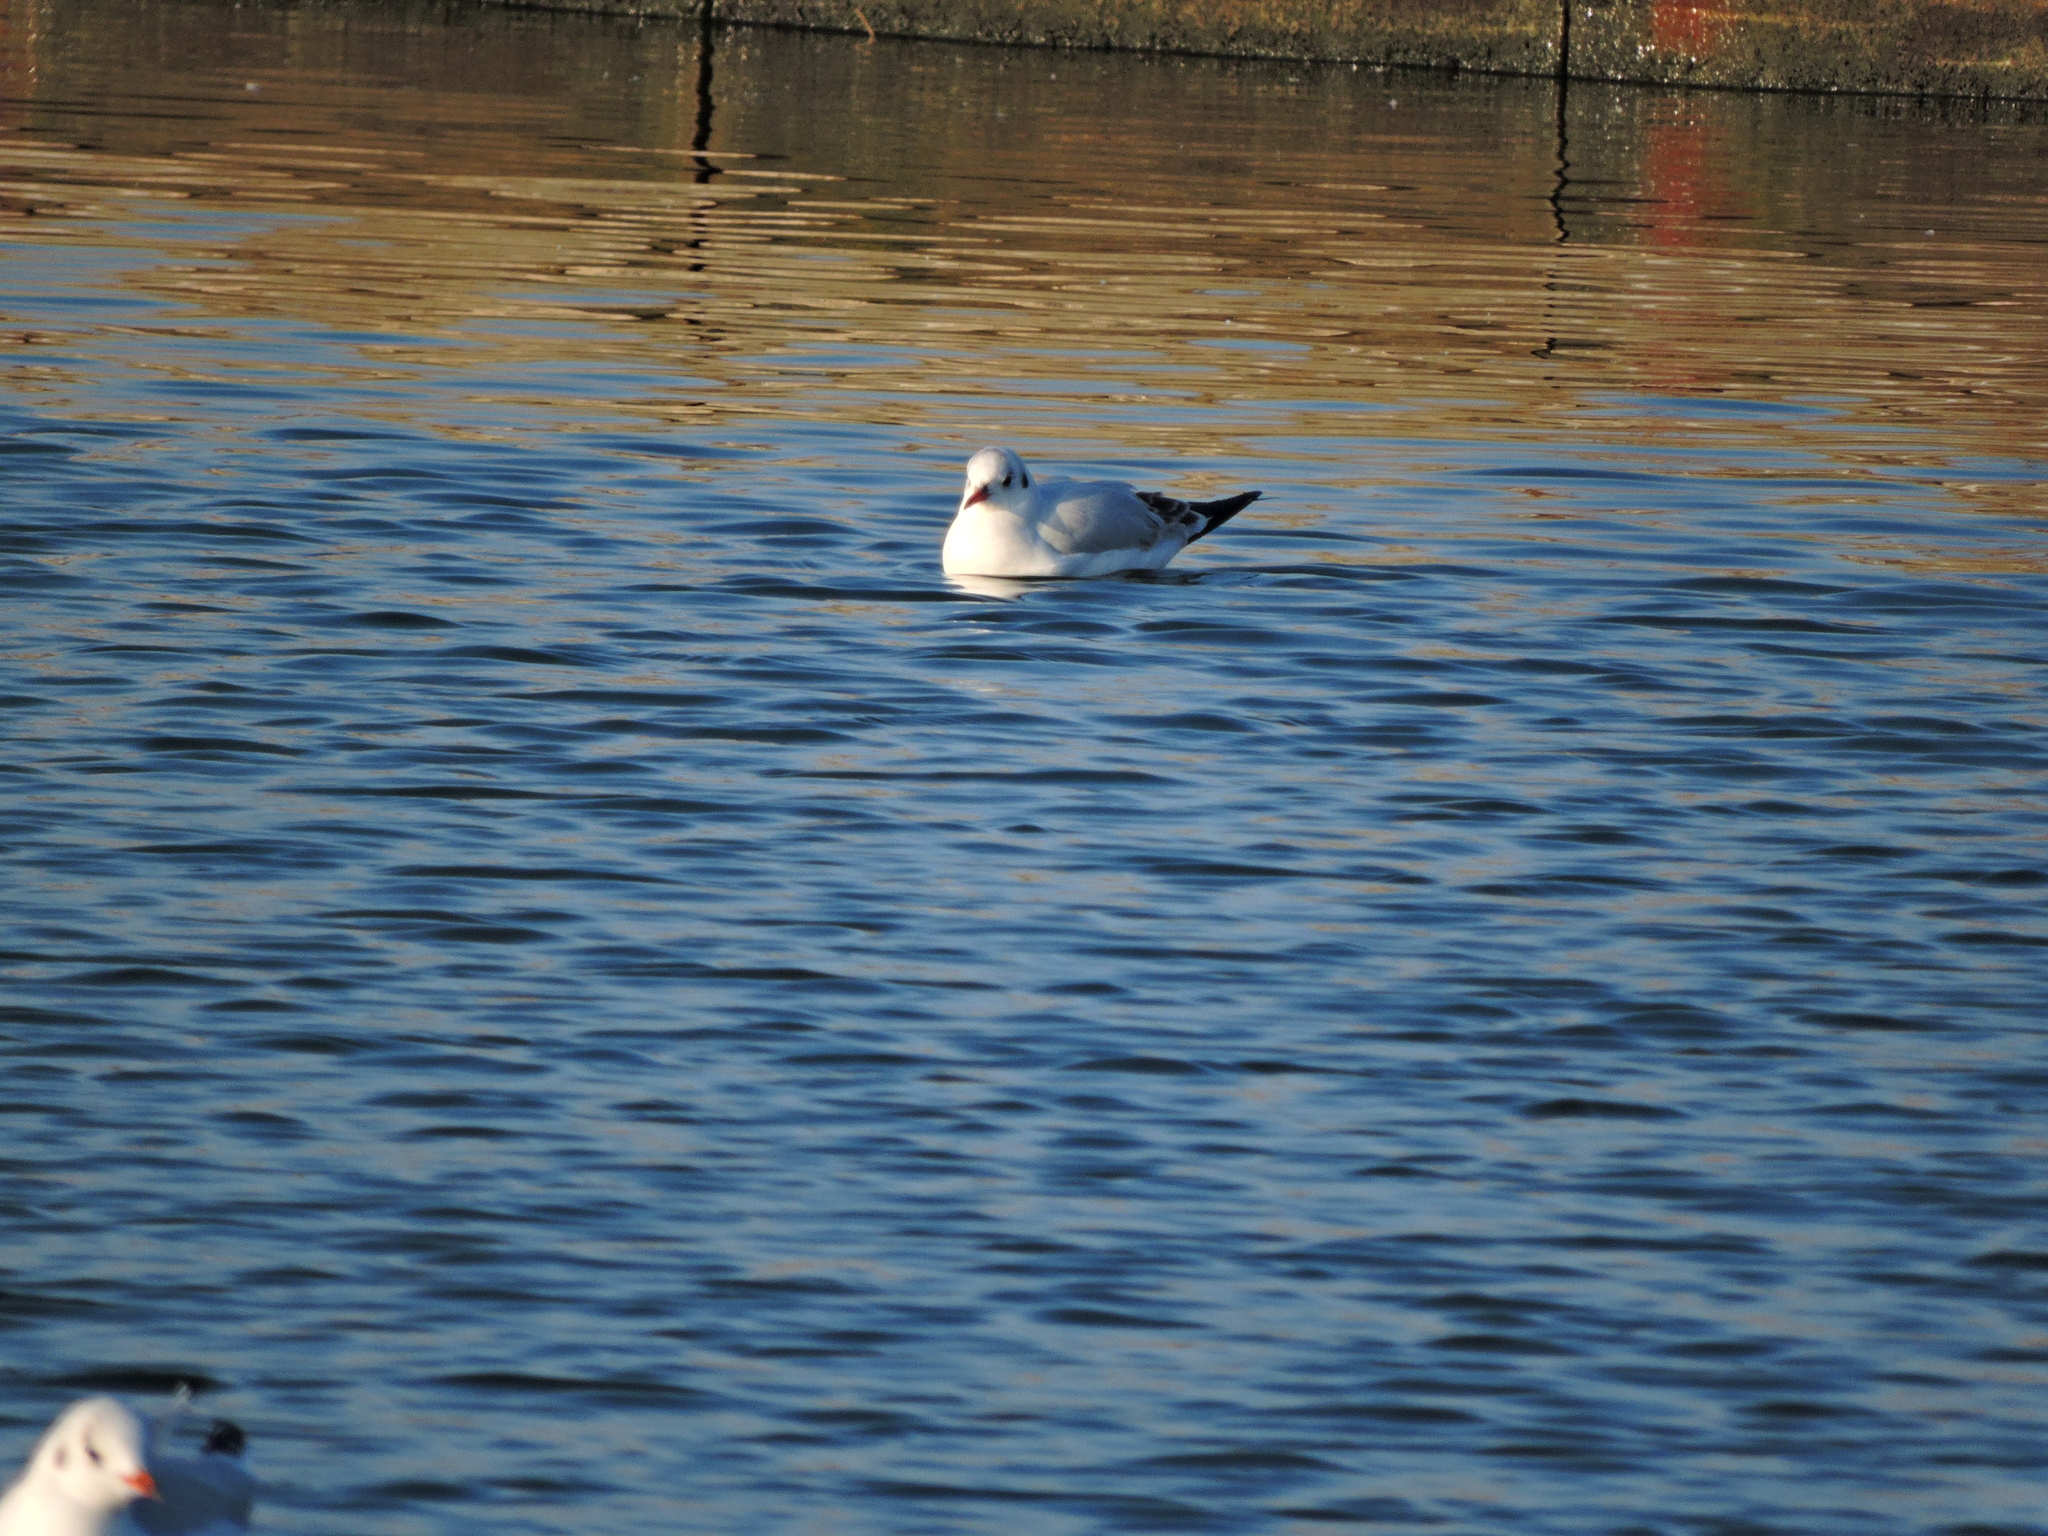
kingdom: Animalia
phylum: Chordata
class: Aves
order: Charadriiformes
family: Laridae
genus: Chroicocephalus
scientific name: Chroicocephalus ridibundus
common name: Black-headed gull
